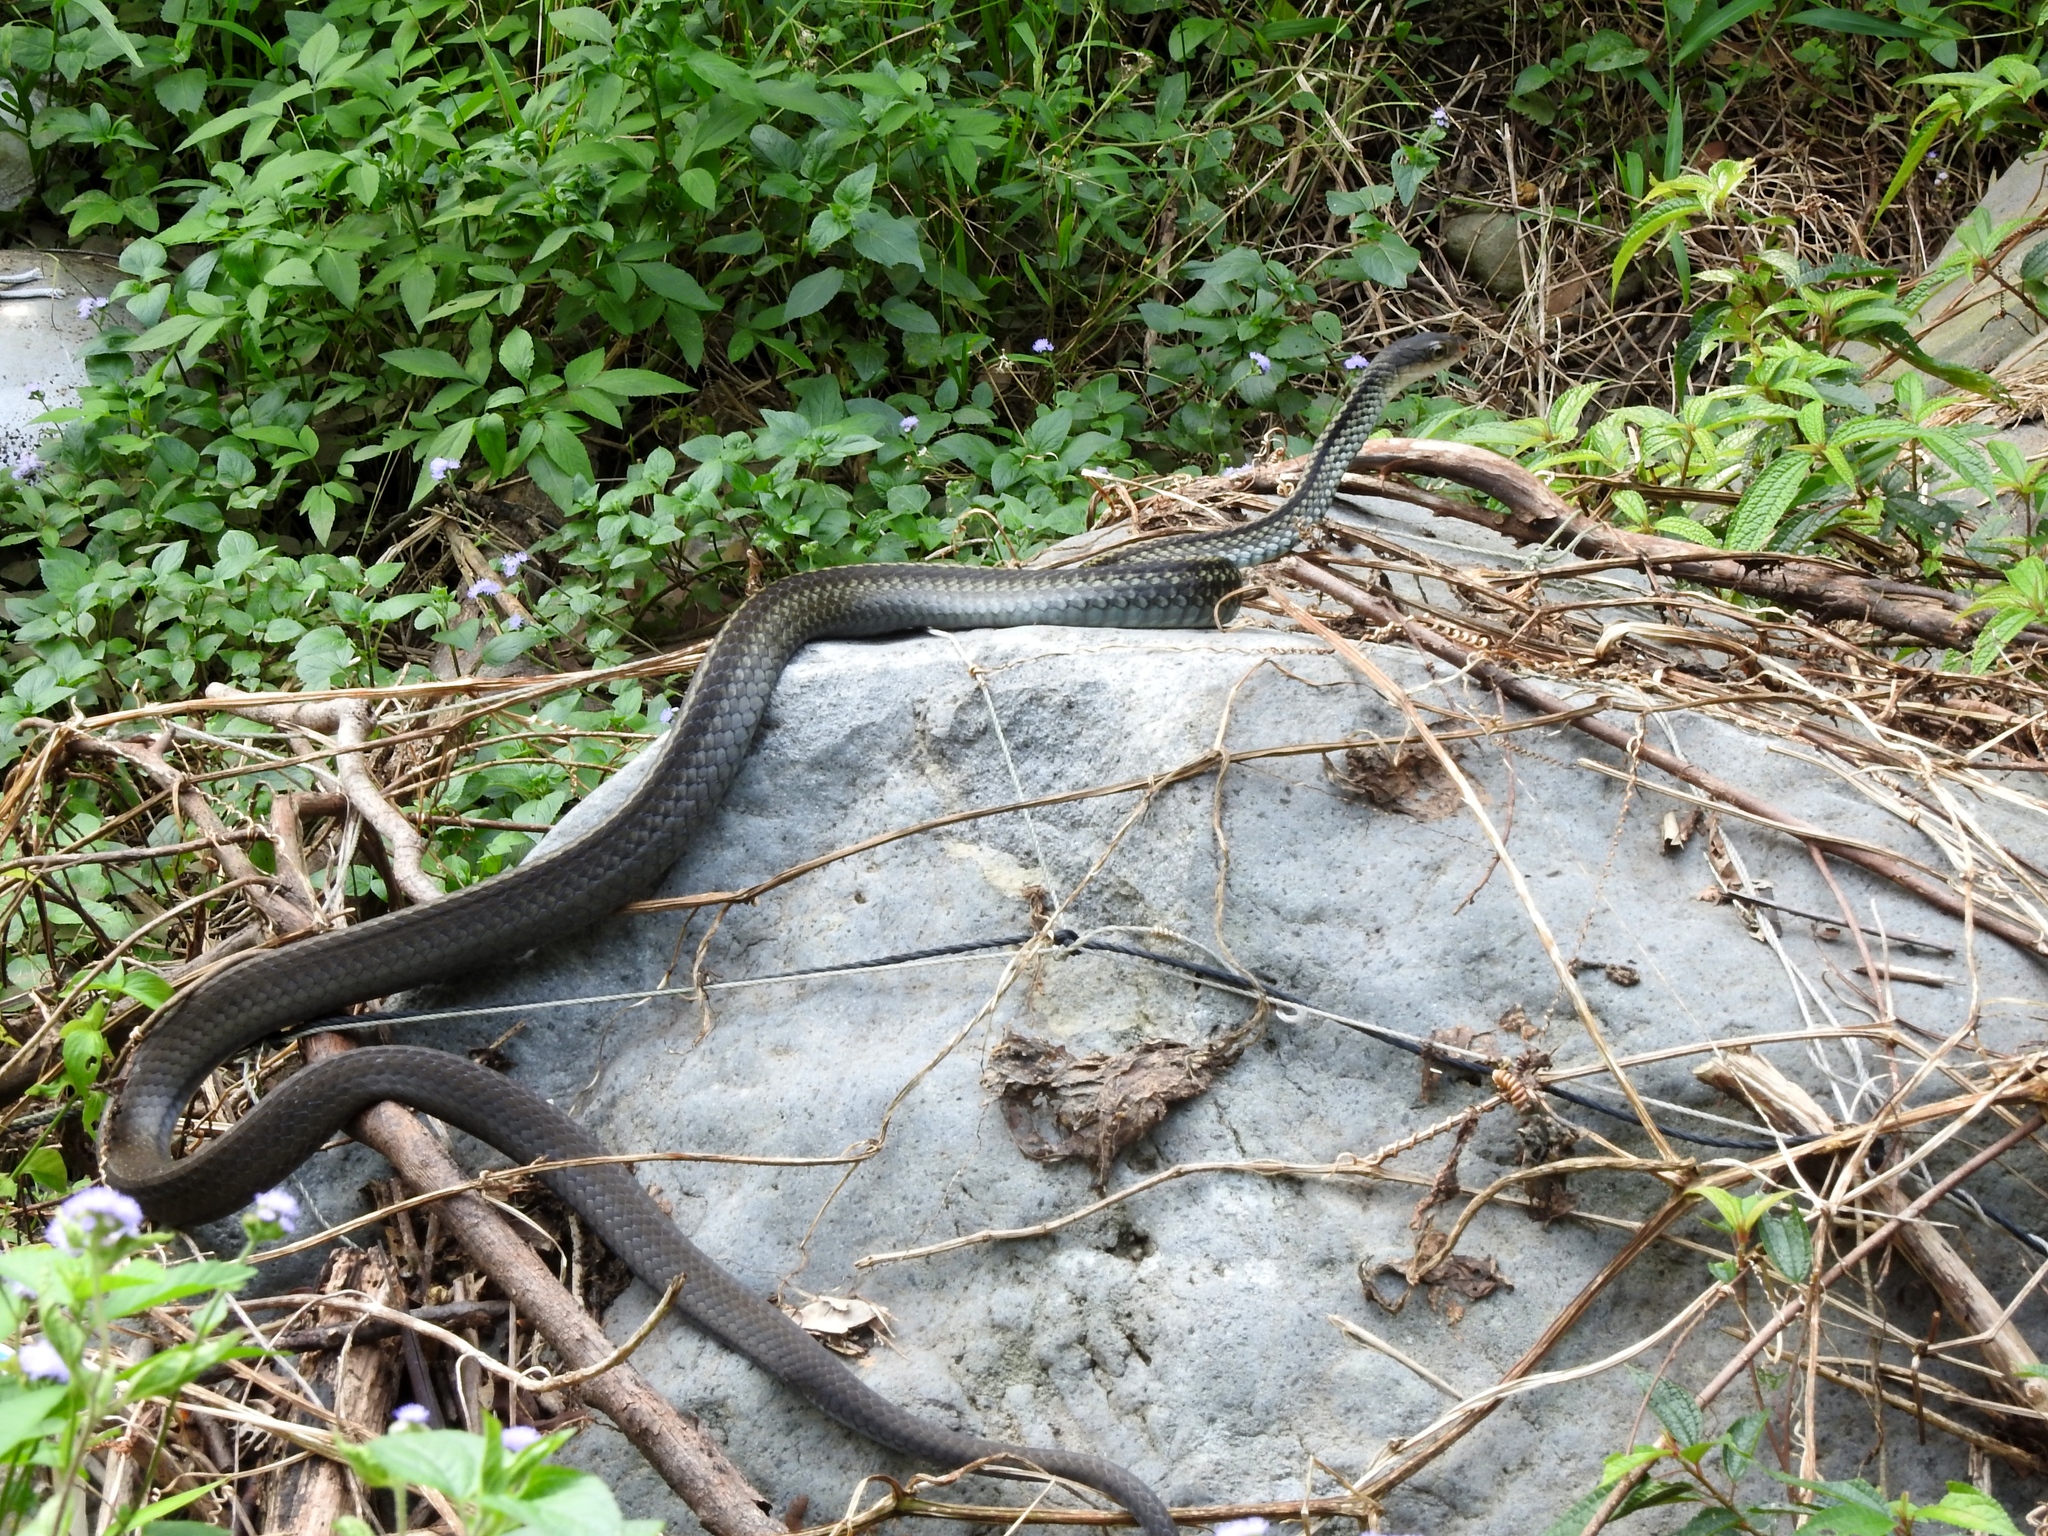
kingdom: Animalia
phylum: Chordata
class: Squamata
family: Colubridae
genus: Ptyas
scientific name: Ptyas dhumnades
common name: Black-striped rat snake
